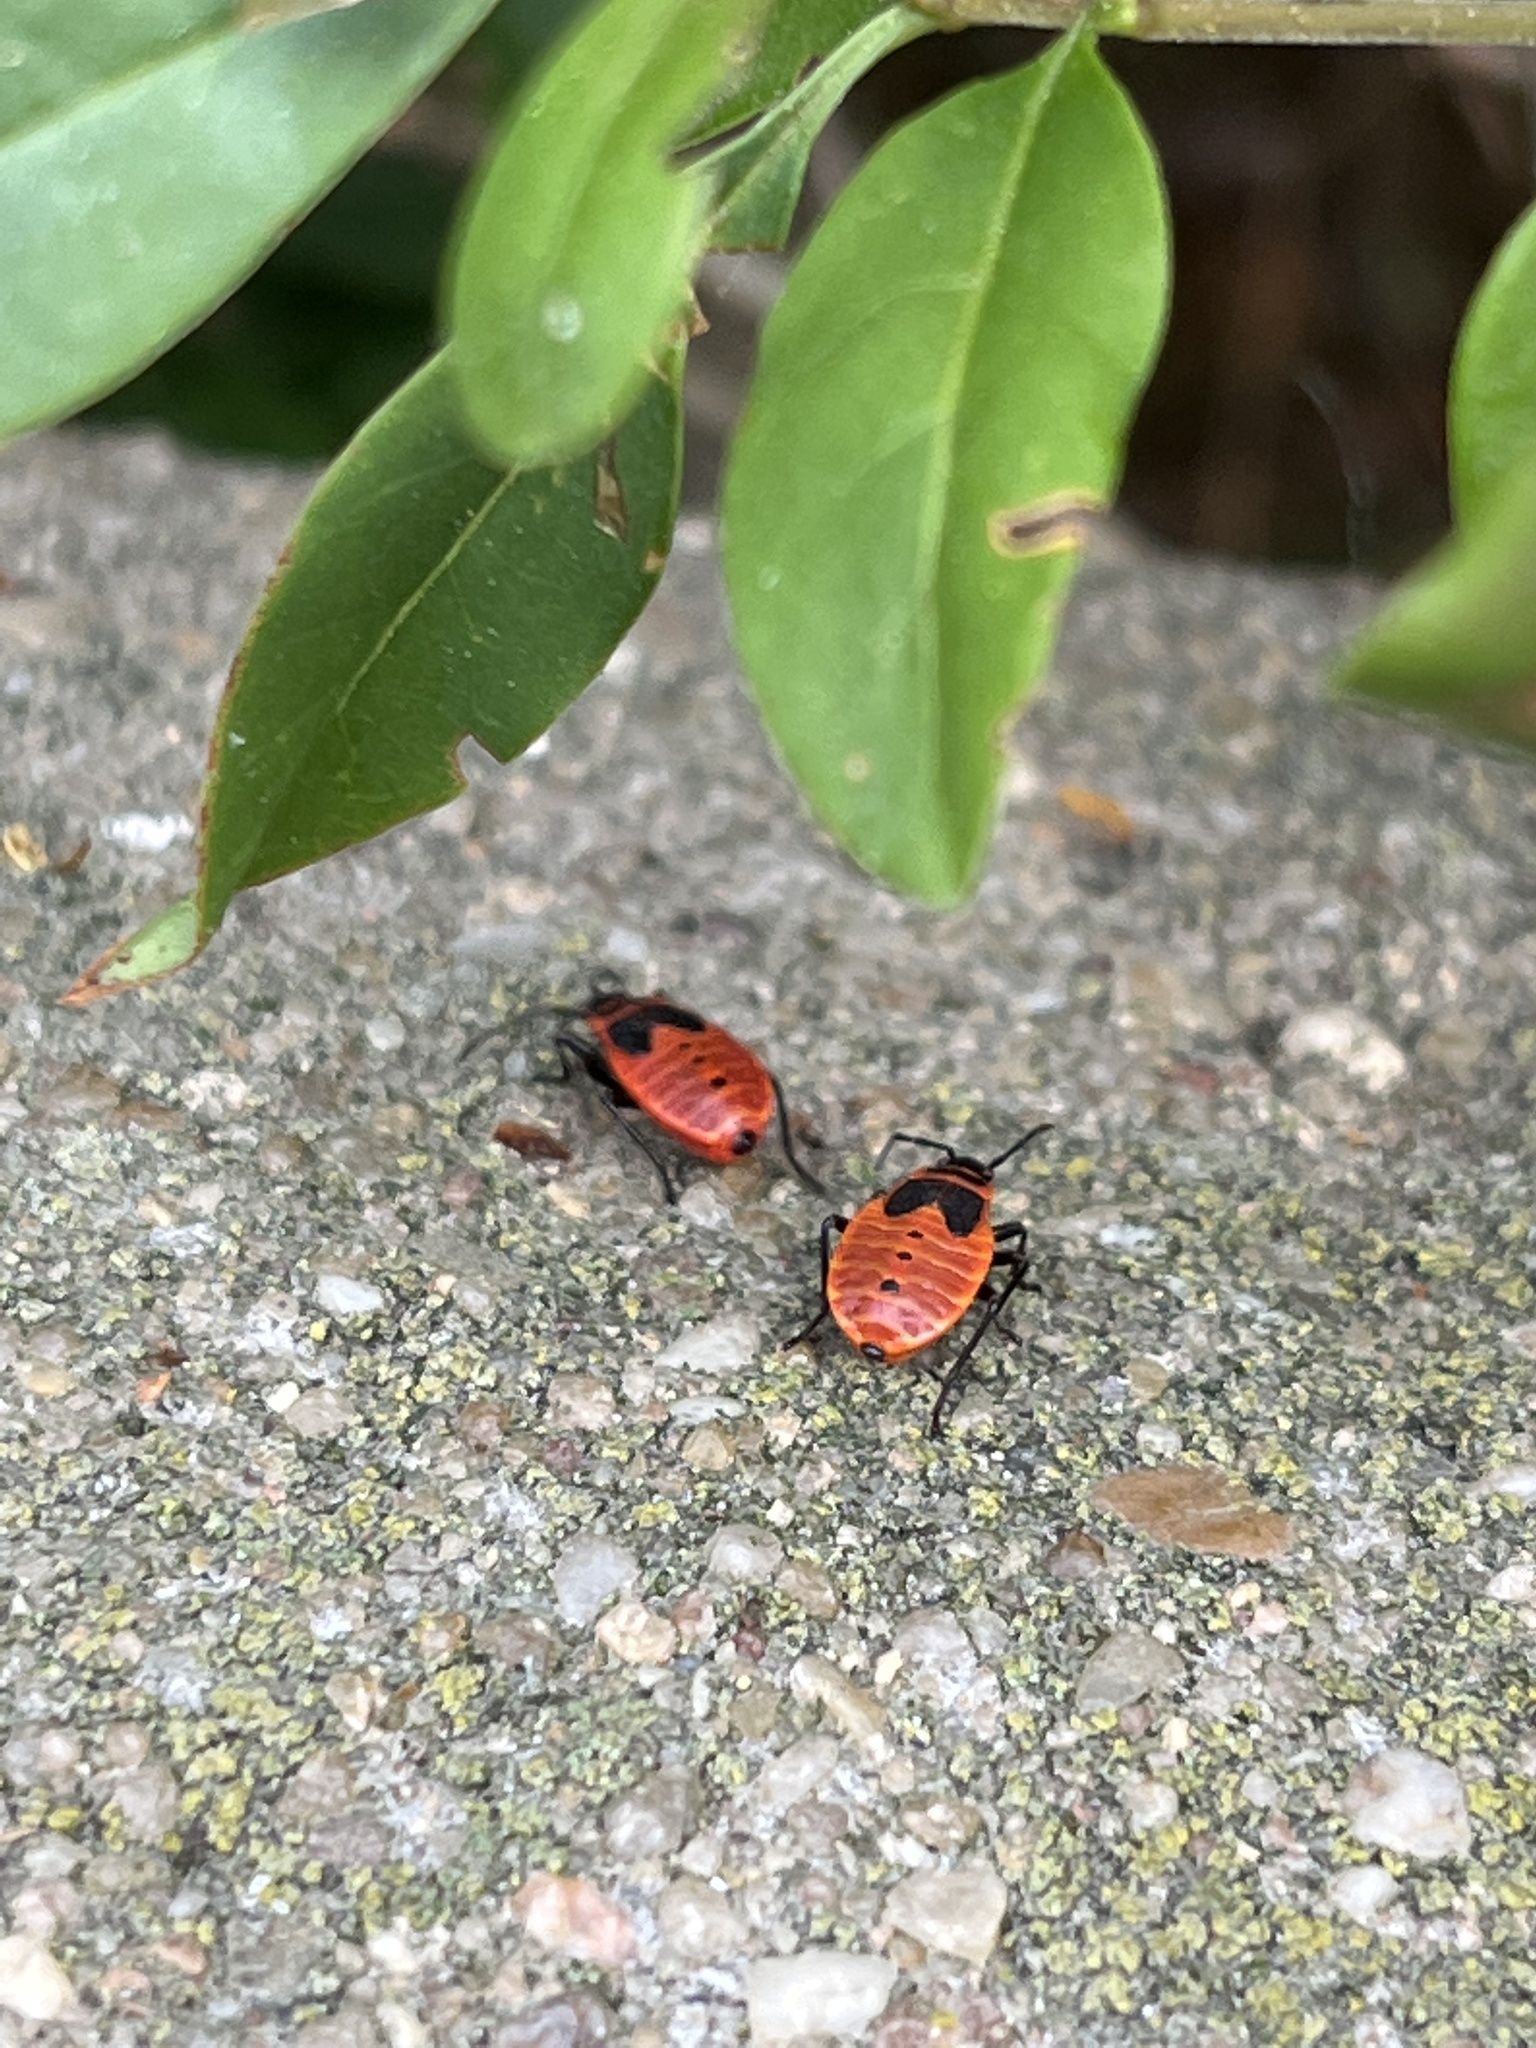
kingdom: Animalia
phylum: Arthropoda
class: Insecta
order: Hemiptera
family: Pyrrhocoridae
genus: Pyrrhocoris
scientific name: Pyrrhocoris apterus
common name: Firebug
